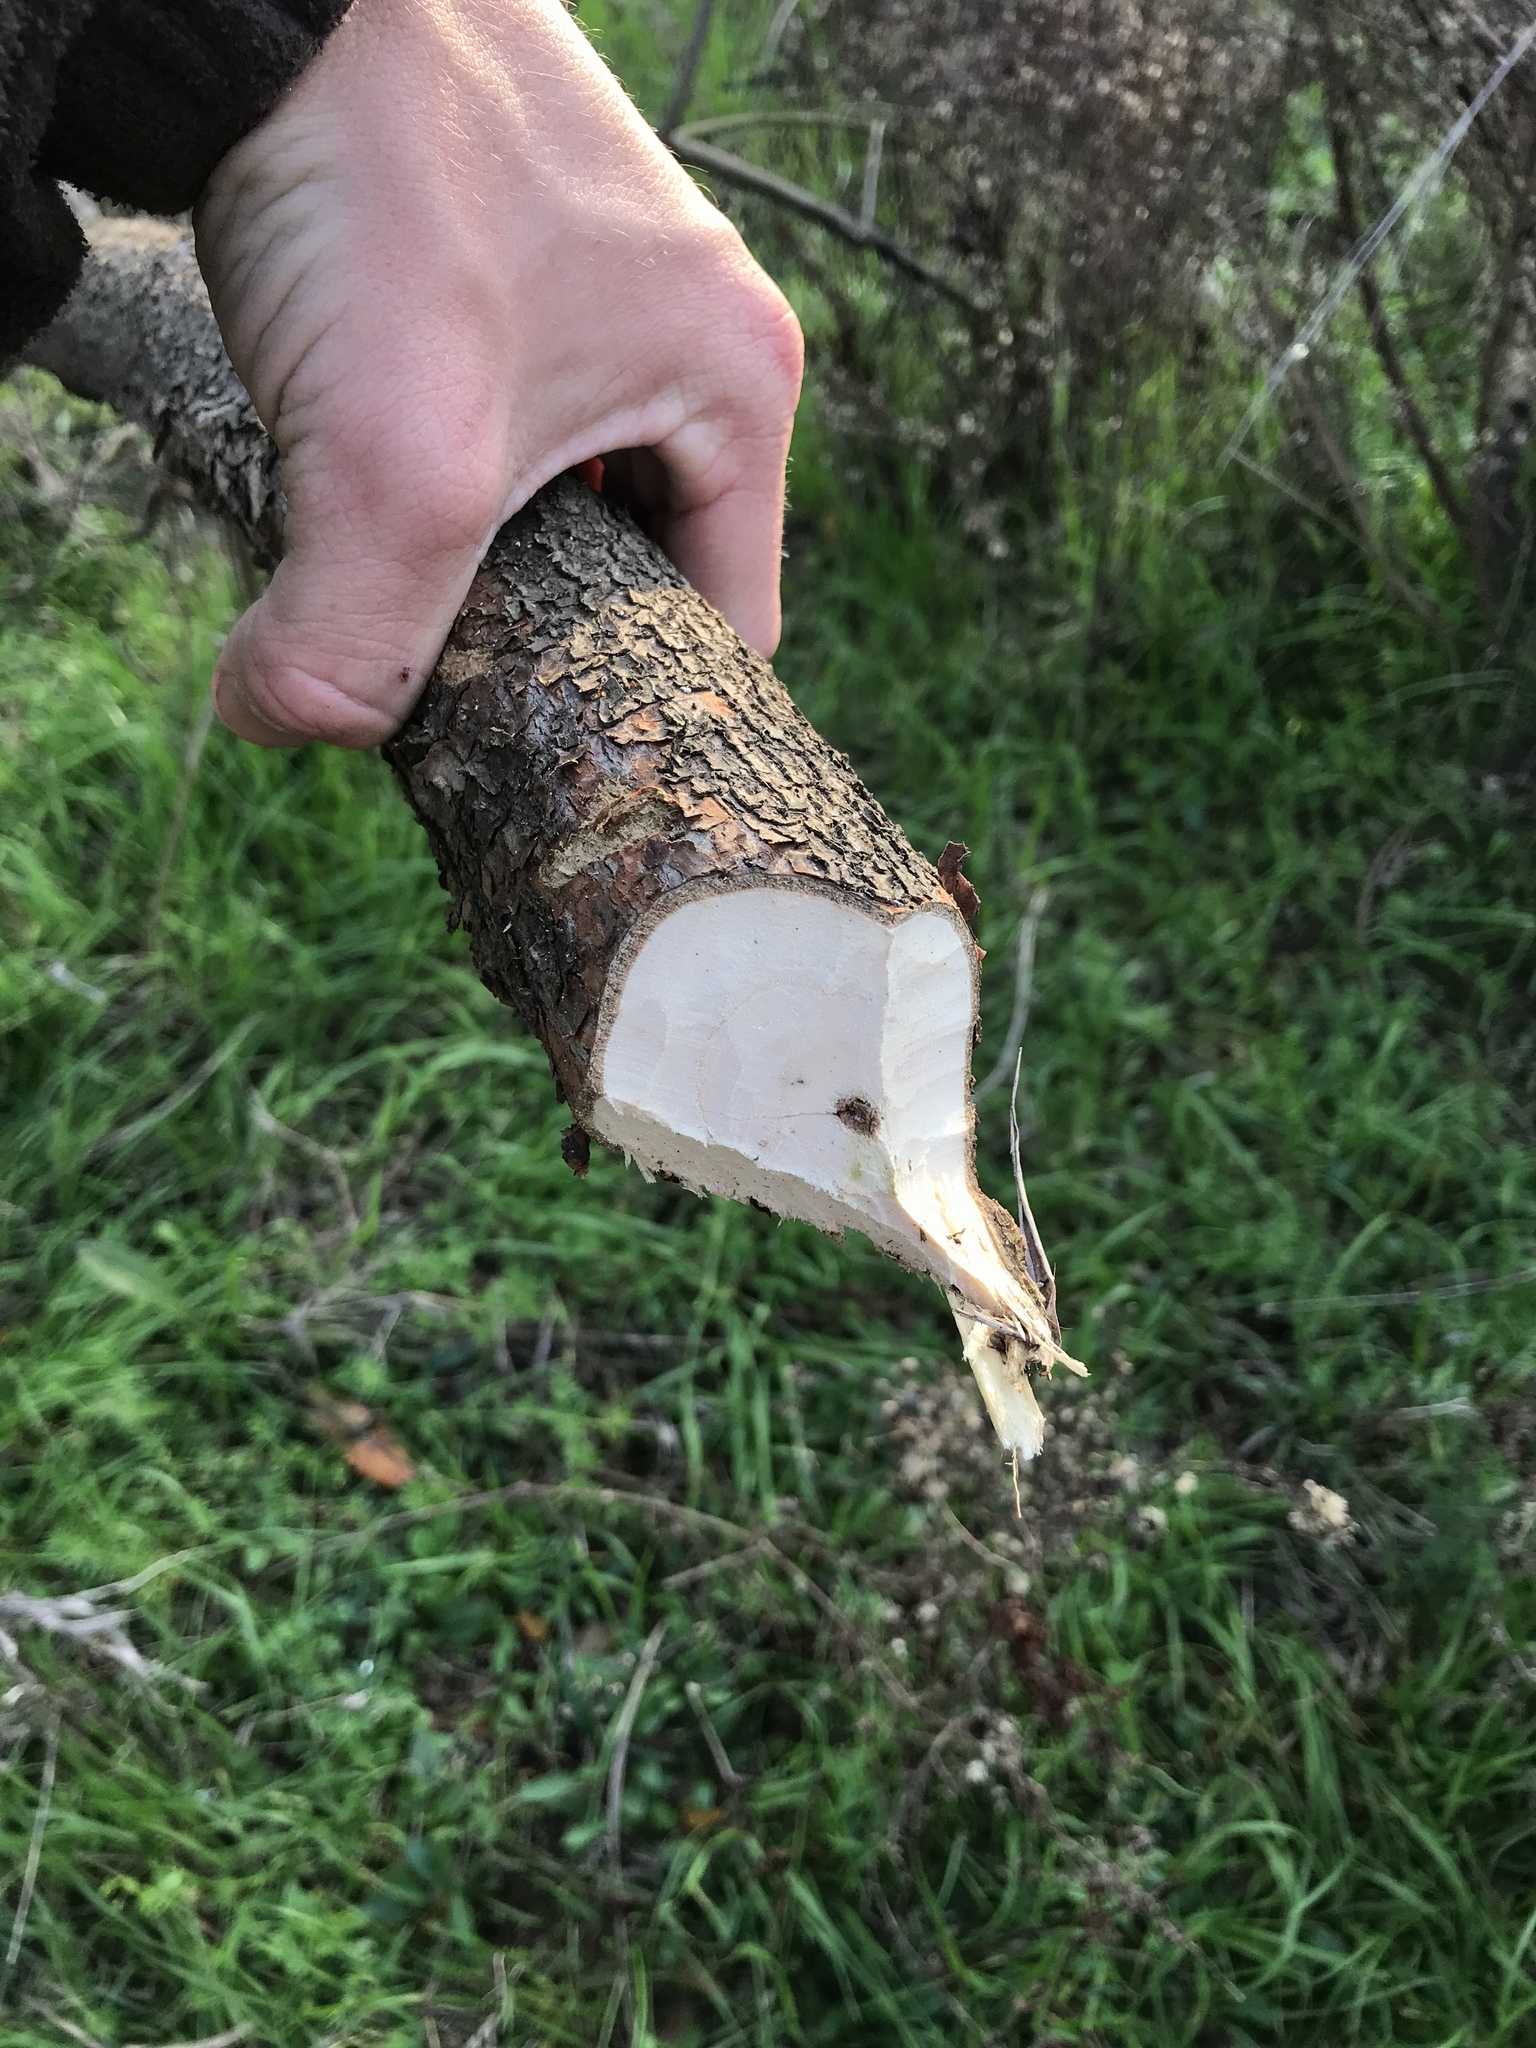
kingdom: Animalia
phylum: Chordata
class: Mammalia
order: Rodentia
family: Castoridae
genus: Castor
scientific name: Castor canadensis
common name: American beaver
